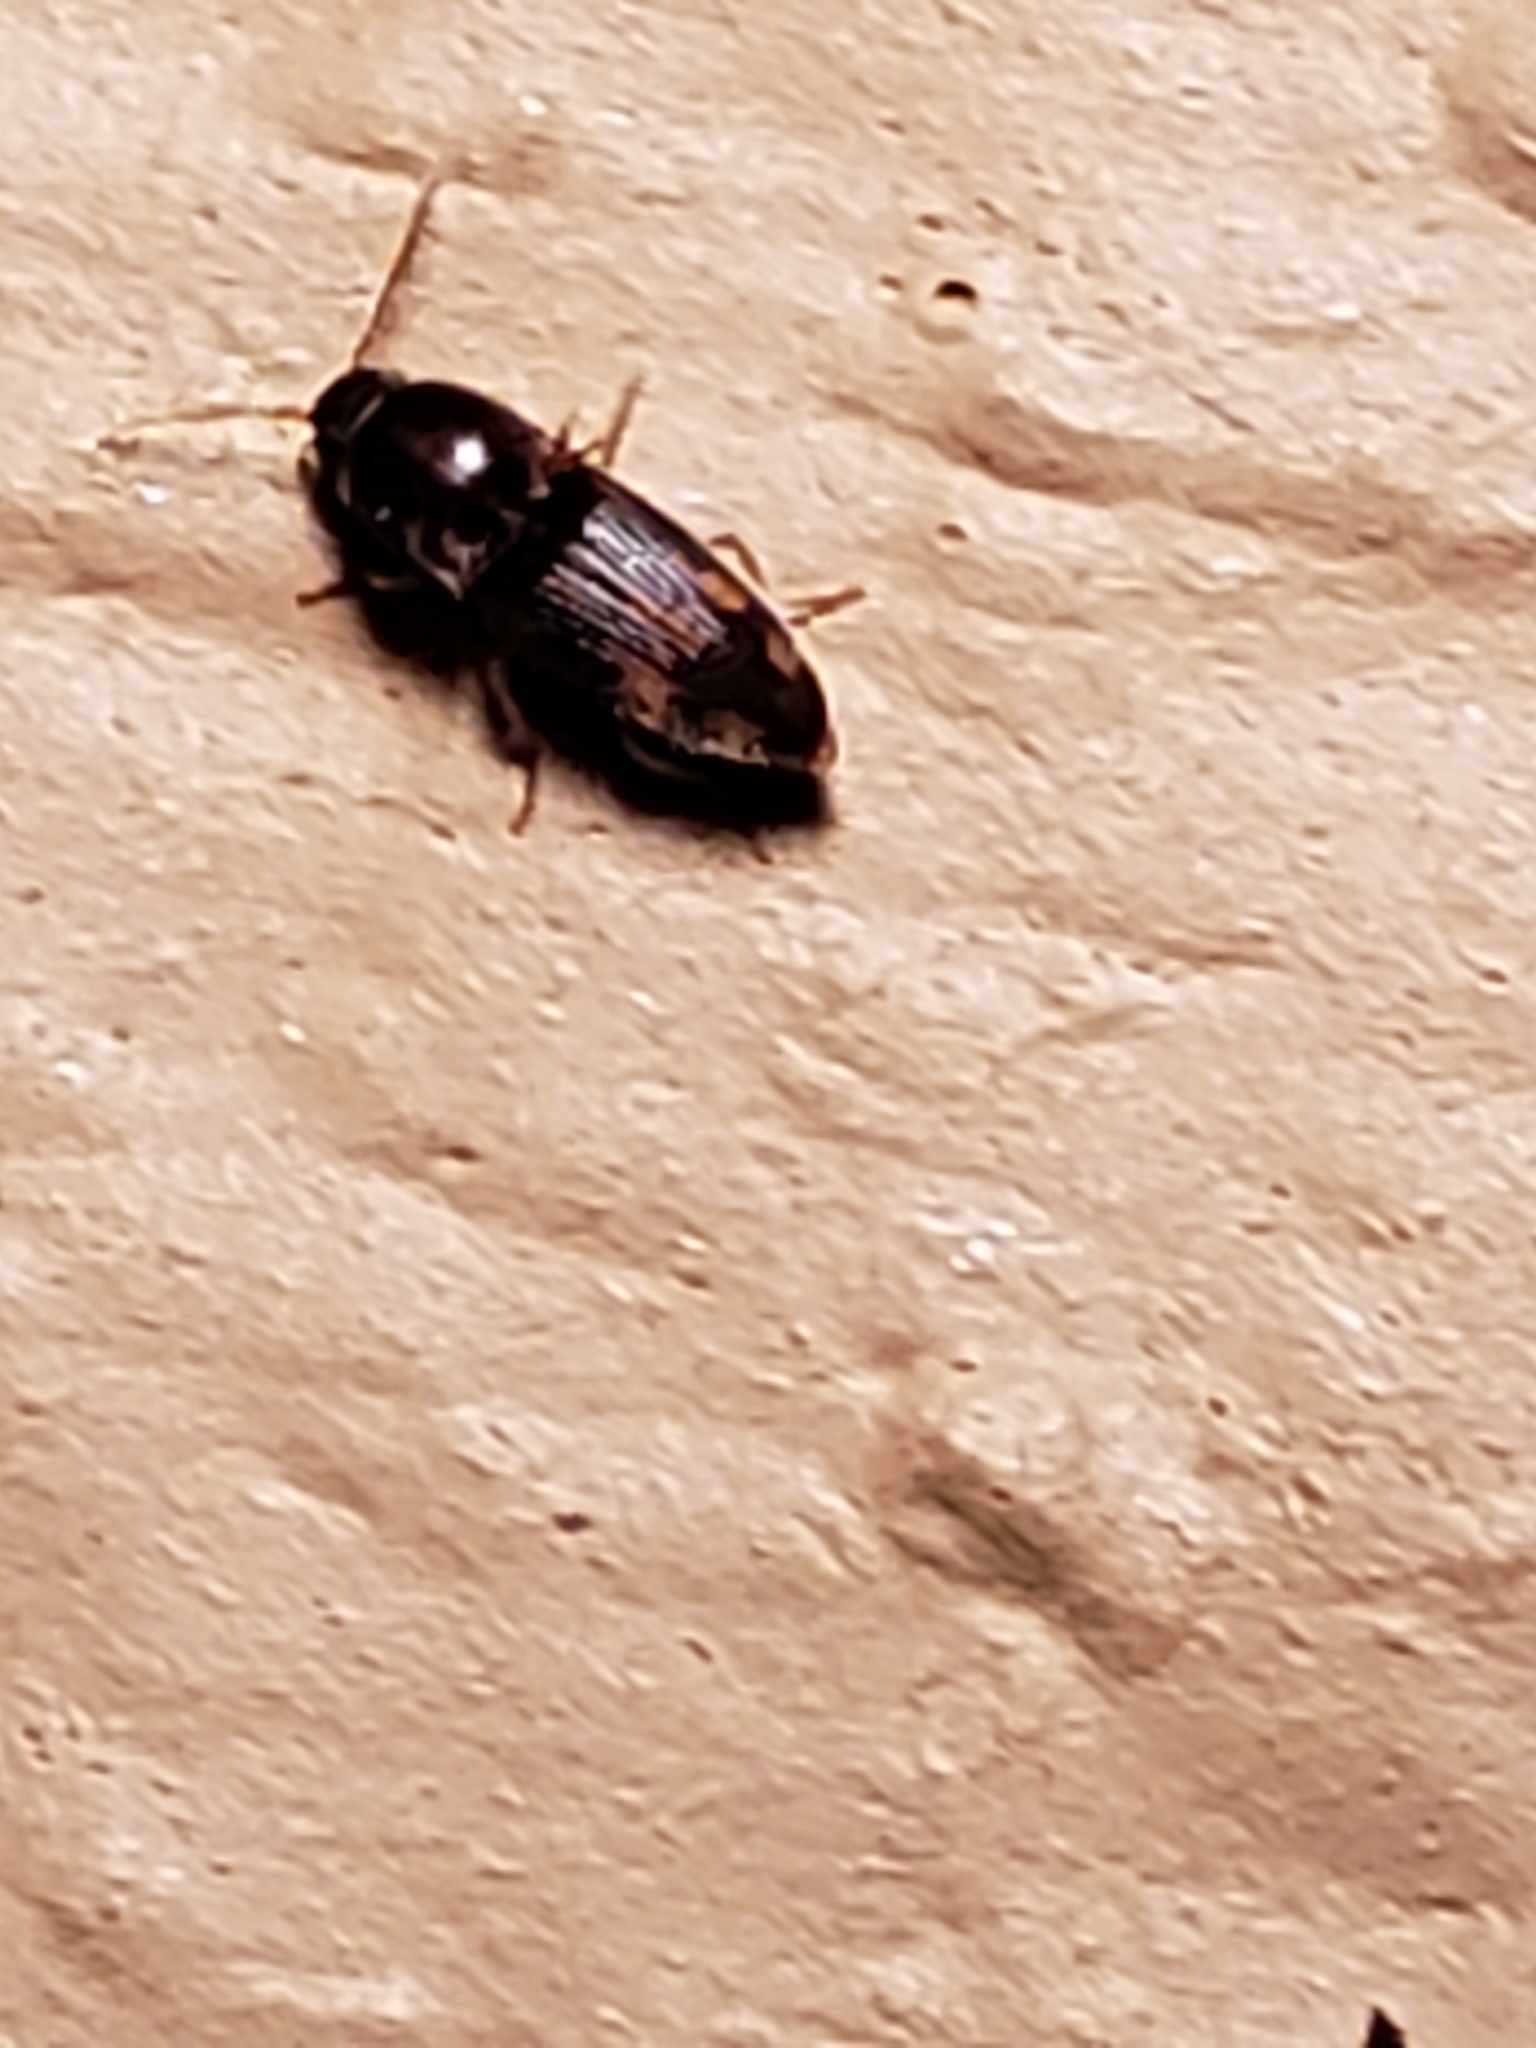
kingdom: Animalia
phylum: Arthropoda
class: Insecta
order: Coleoptera
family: Elateridae
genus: Monocrepidius
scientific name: Monocrepidius bellus
